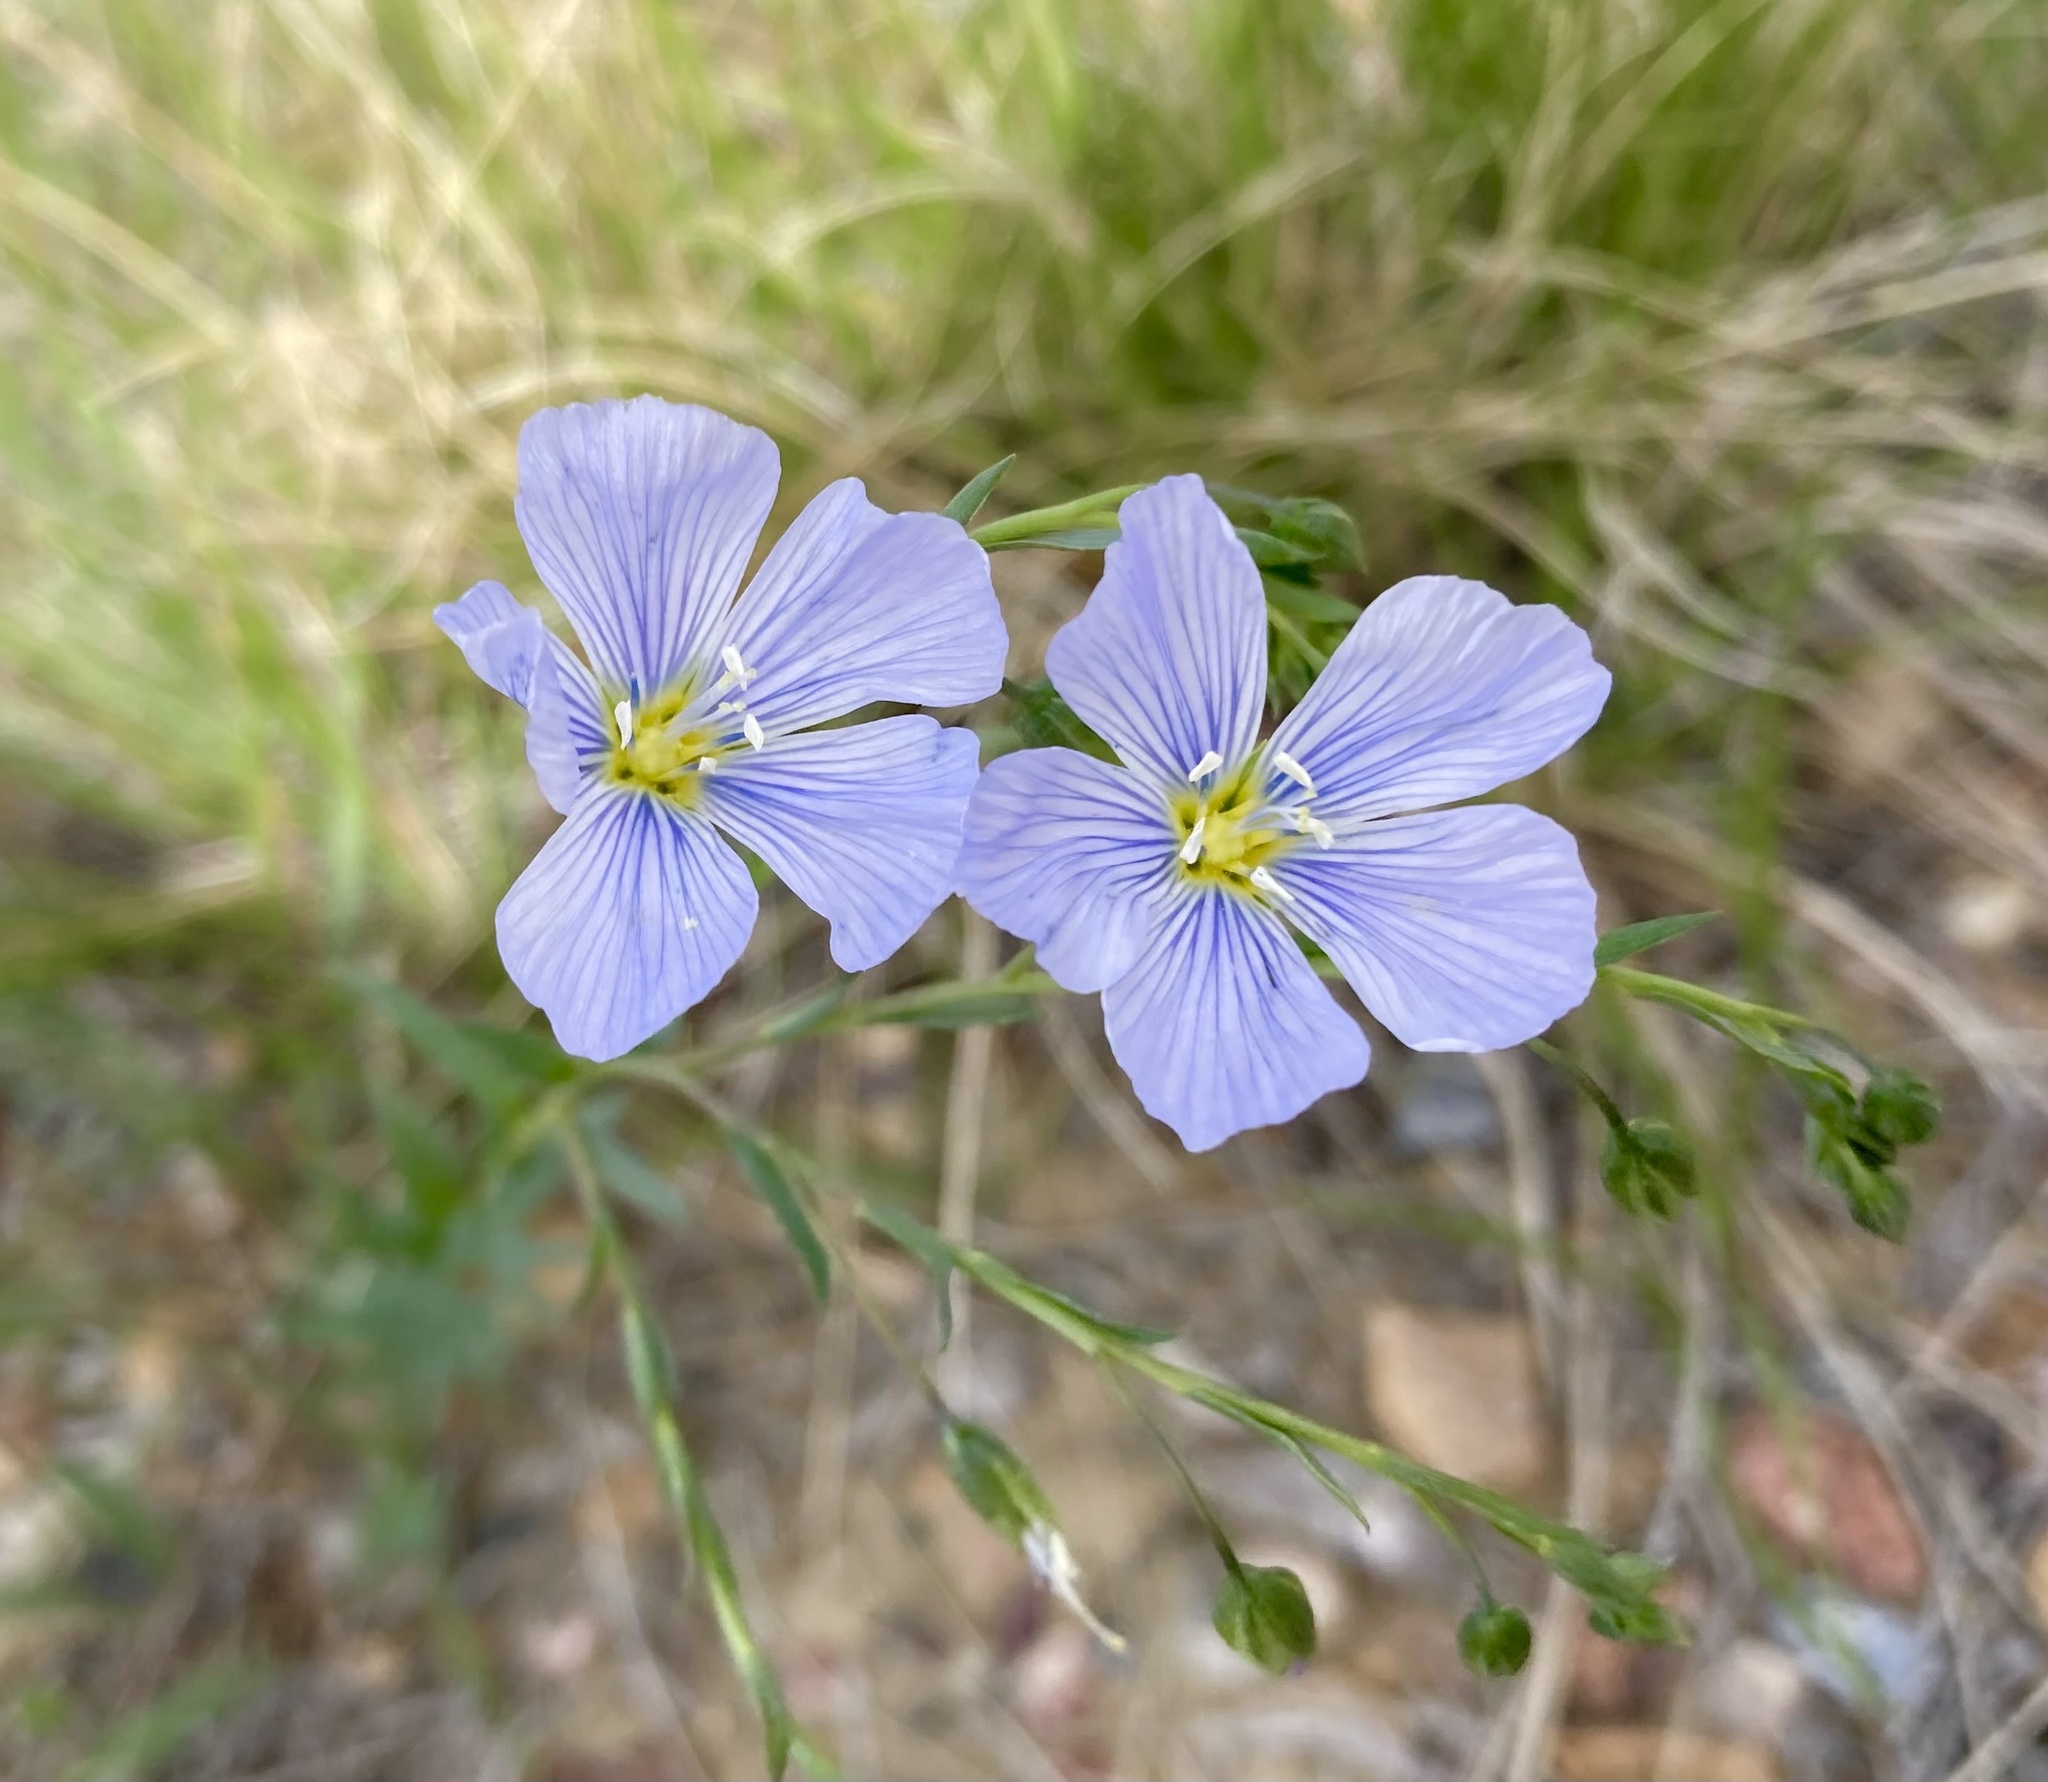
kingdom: Plantae
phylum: Tracheophyta
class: Magnoliopsida
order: Malpighiales
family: Linaceae
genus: Linum
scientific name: Linum lewisii
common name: Prairie flax
